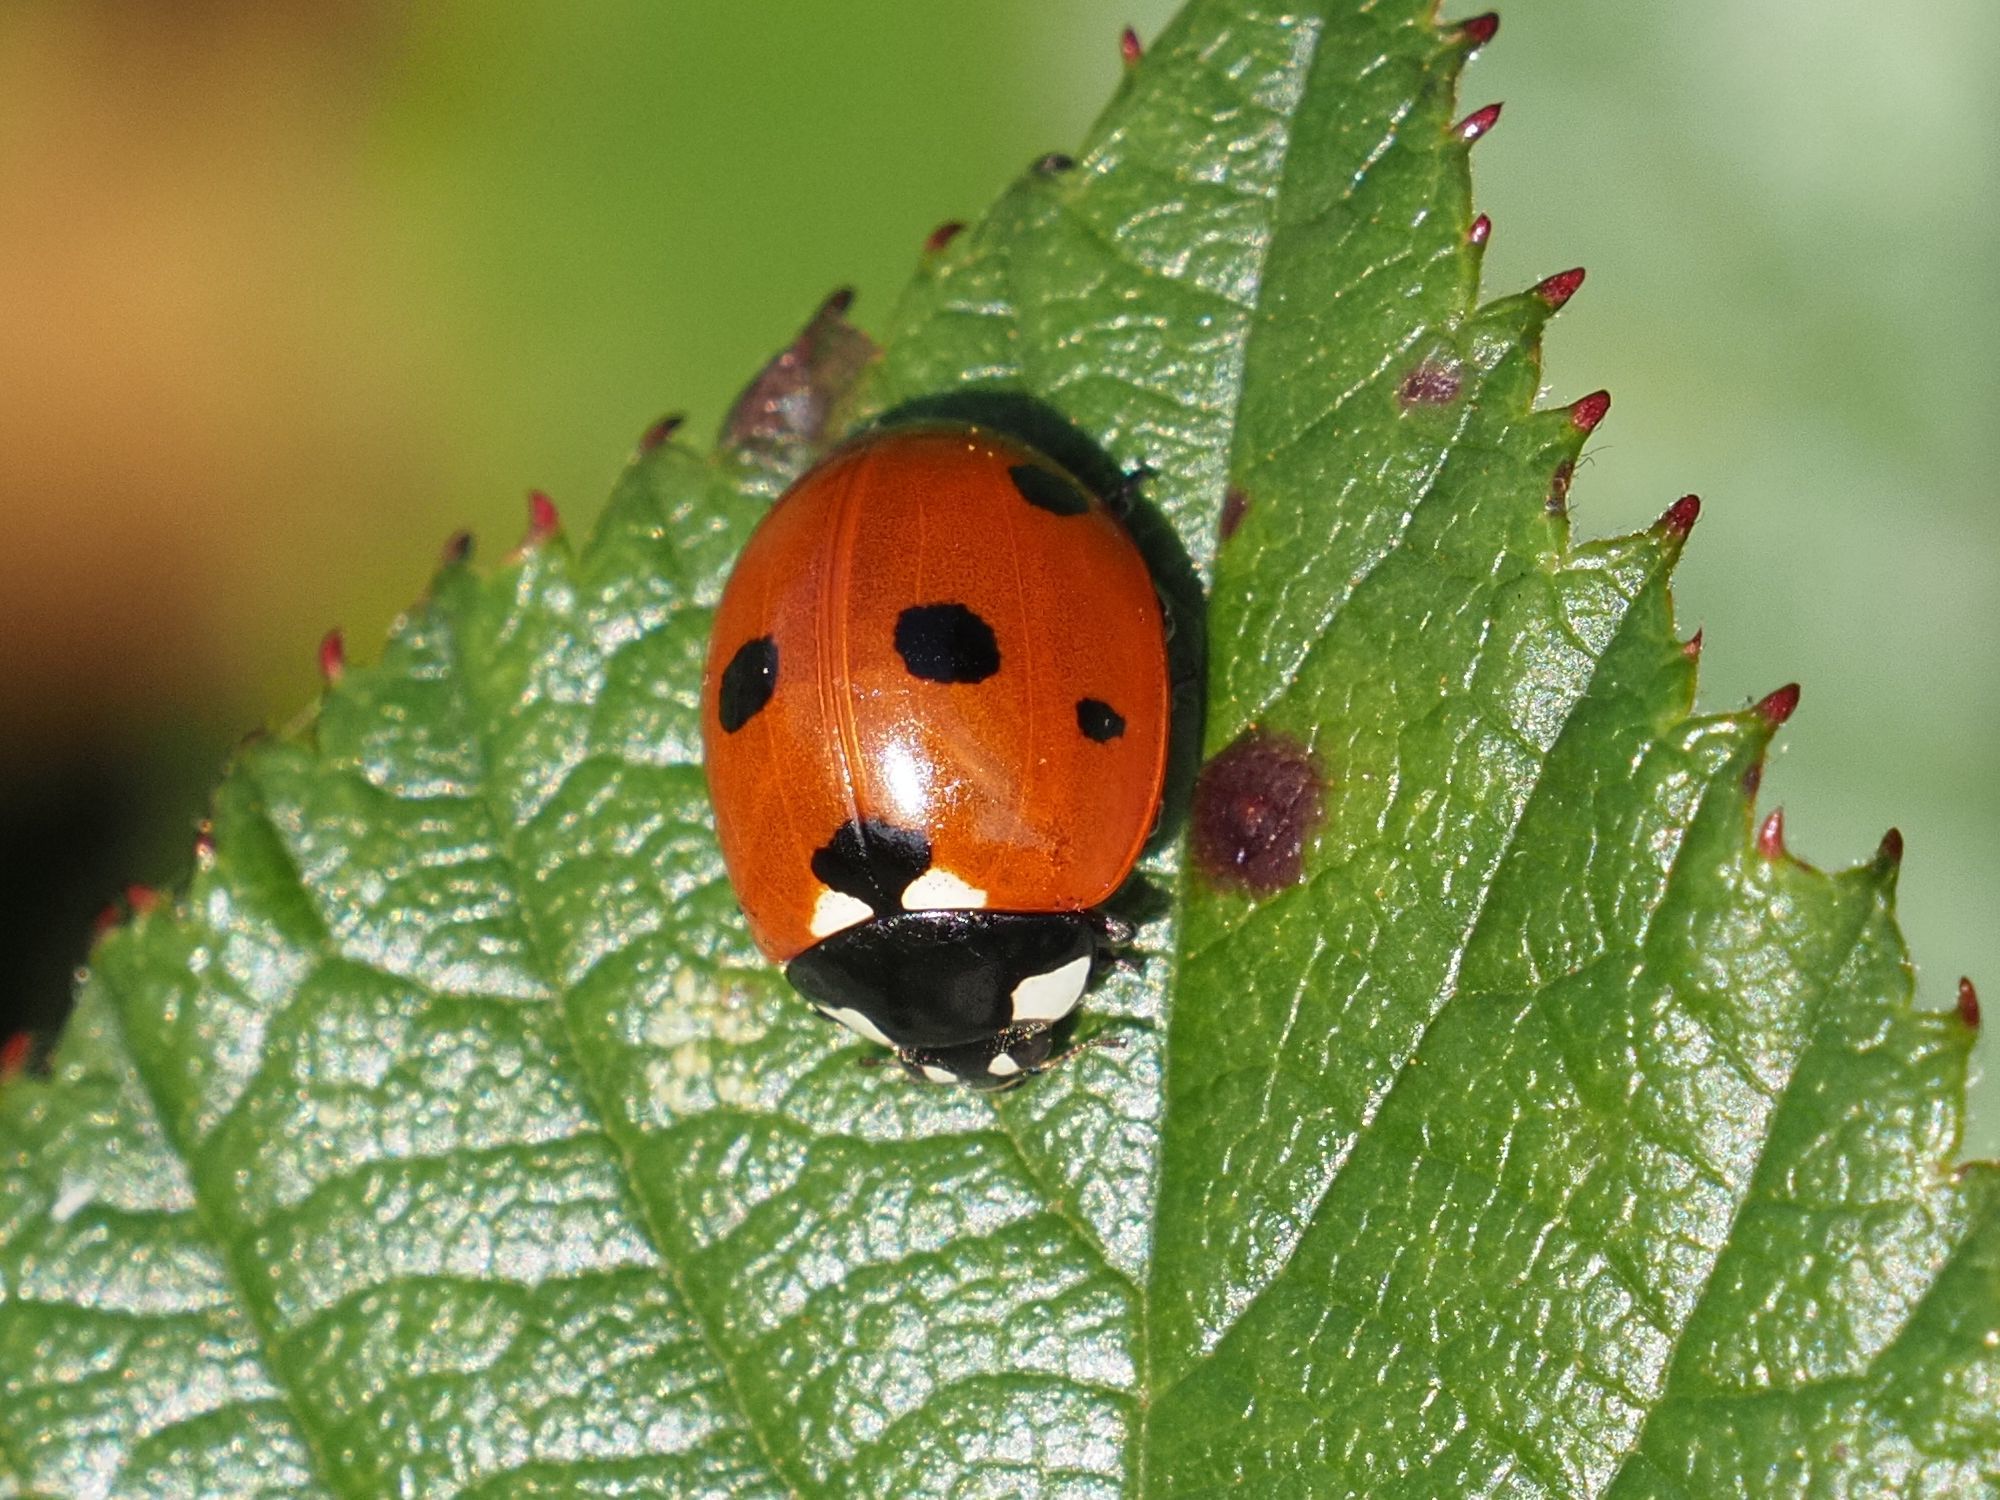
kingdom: Animalia
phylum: Arthropoda
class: Insecta
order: Coleoptera
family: Coccinellidae
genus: Coccinella
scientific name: Coccinella septempunctata
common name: Sevenspotted lady beetle
